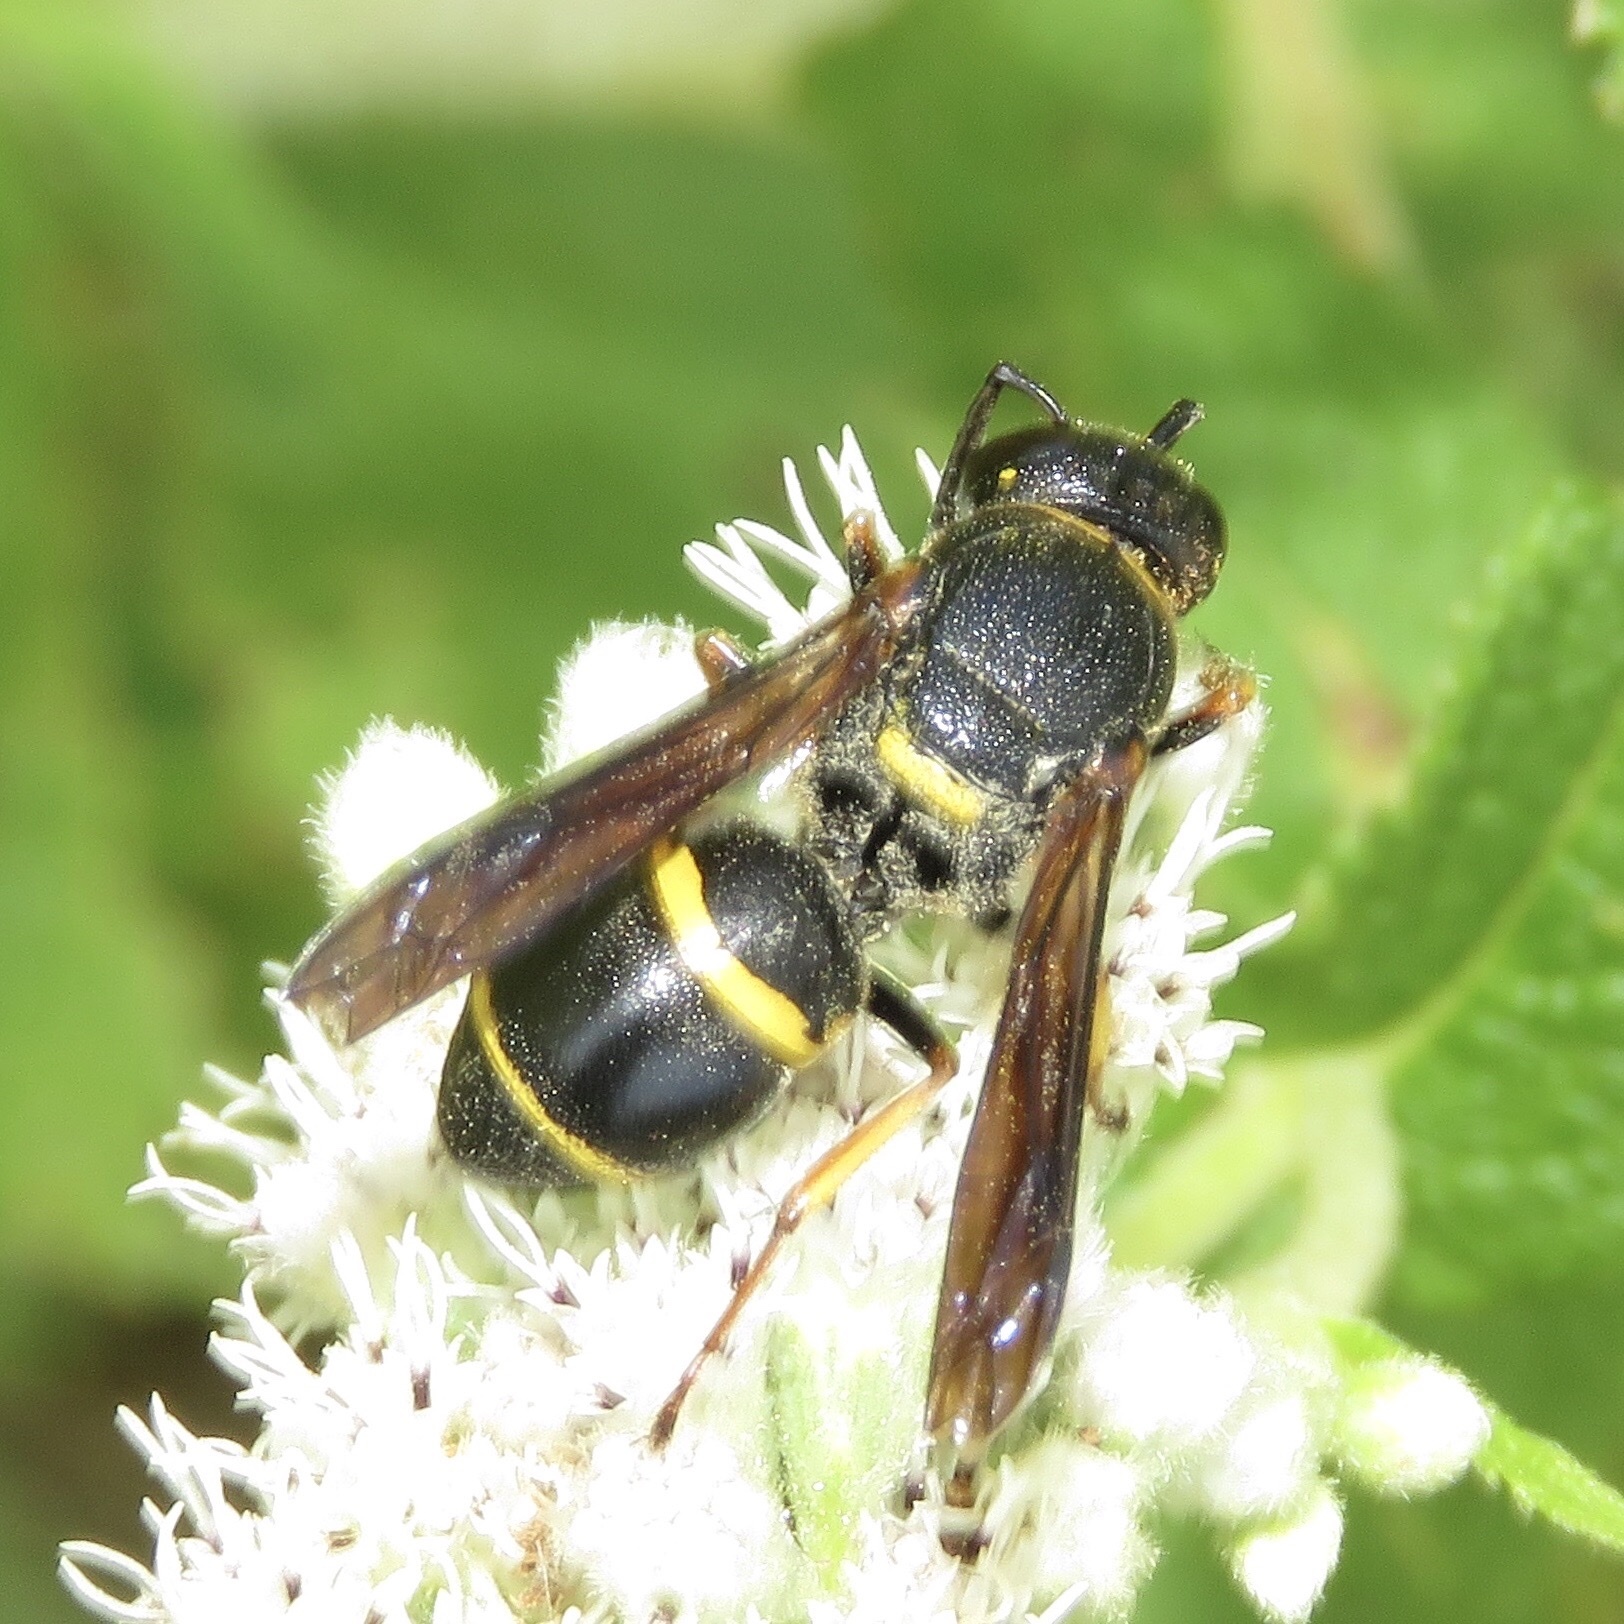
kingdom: Animalia
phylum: Arthropoda
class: Insecta
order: Hymenoptera
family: Eumenidae
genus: Euodynerus
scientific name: Euodynerus
